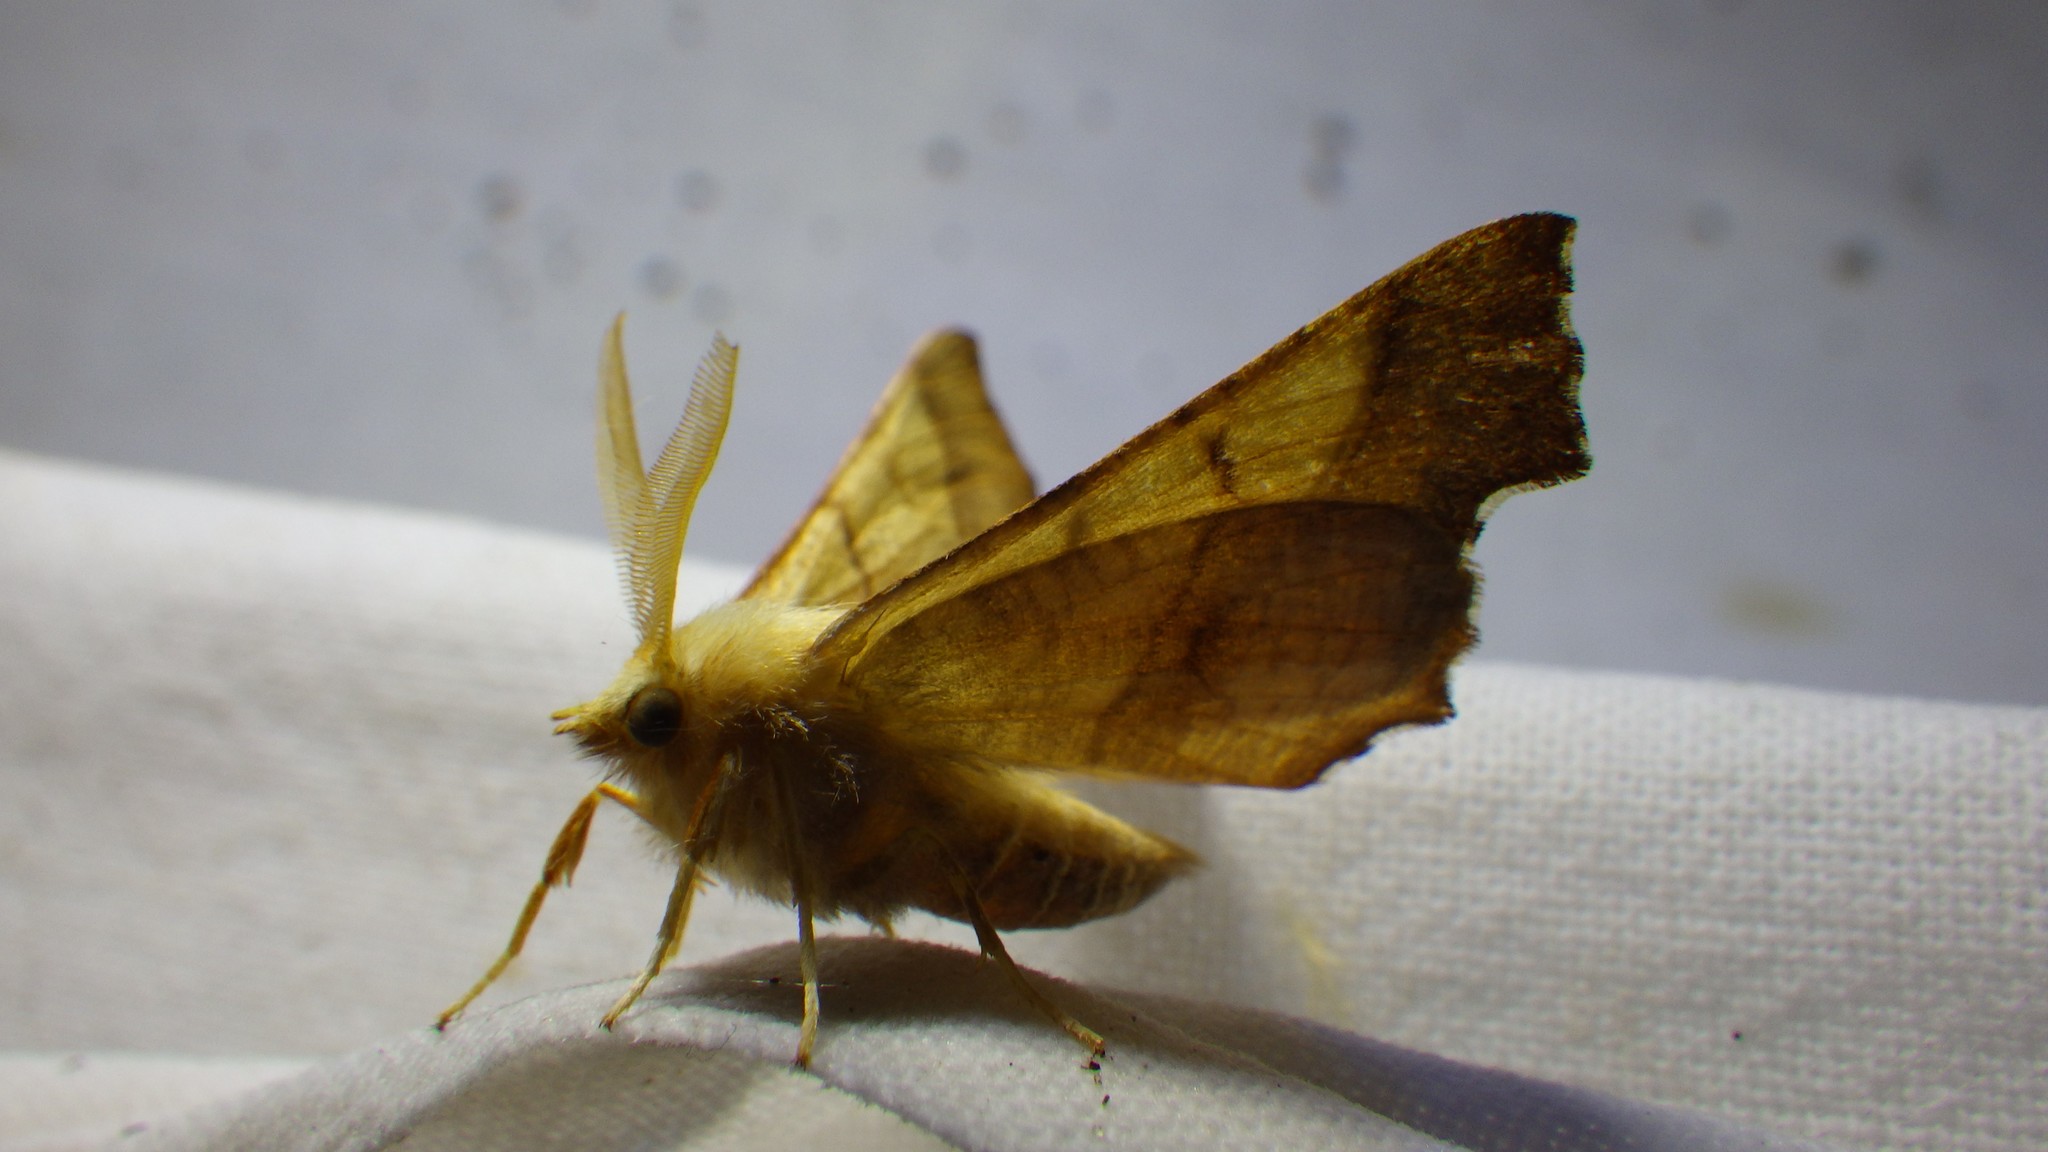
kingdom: Animalia
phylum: Arthropoda
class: Insecta
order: Lepidoptera
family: Geometridae
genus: Ennomos
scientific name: Ennomos fuscantaria
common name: Dusky thorn
